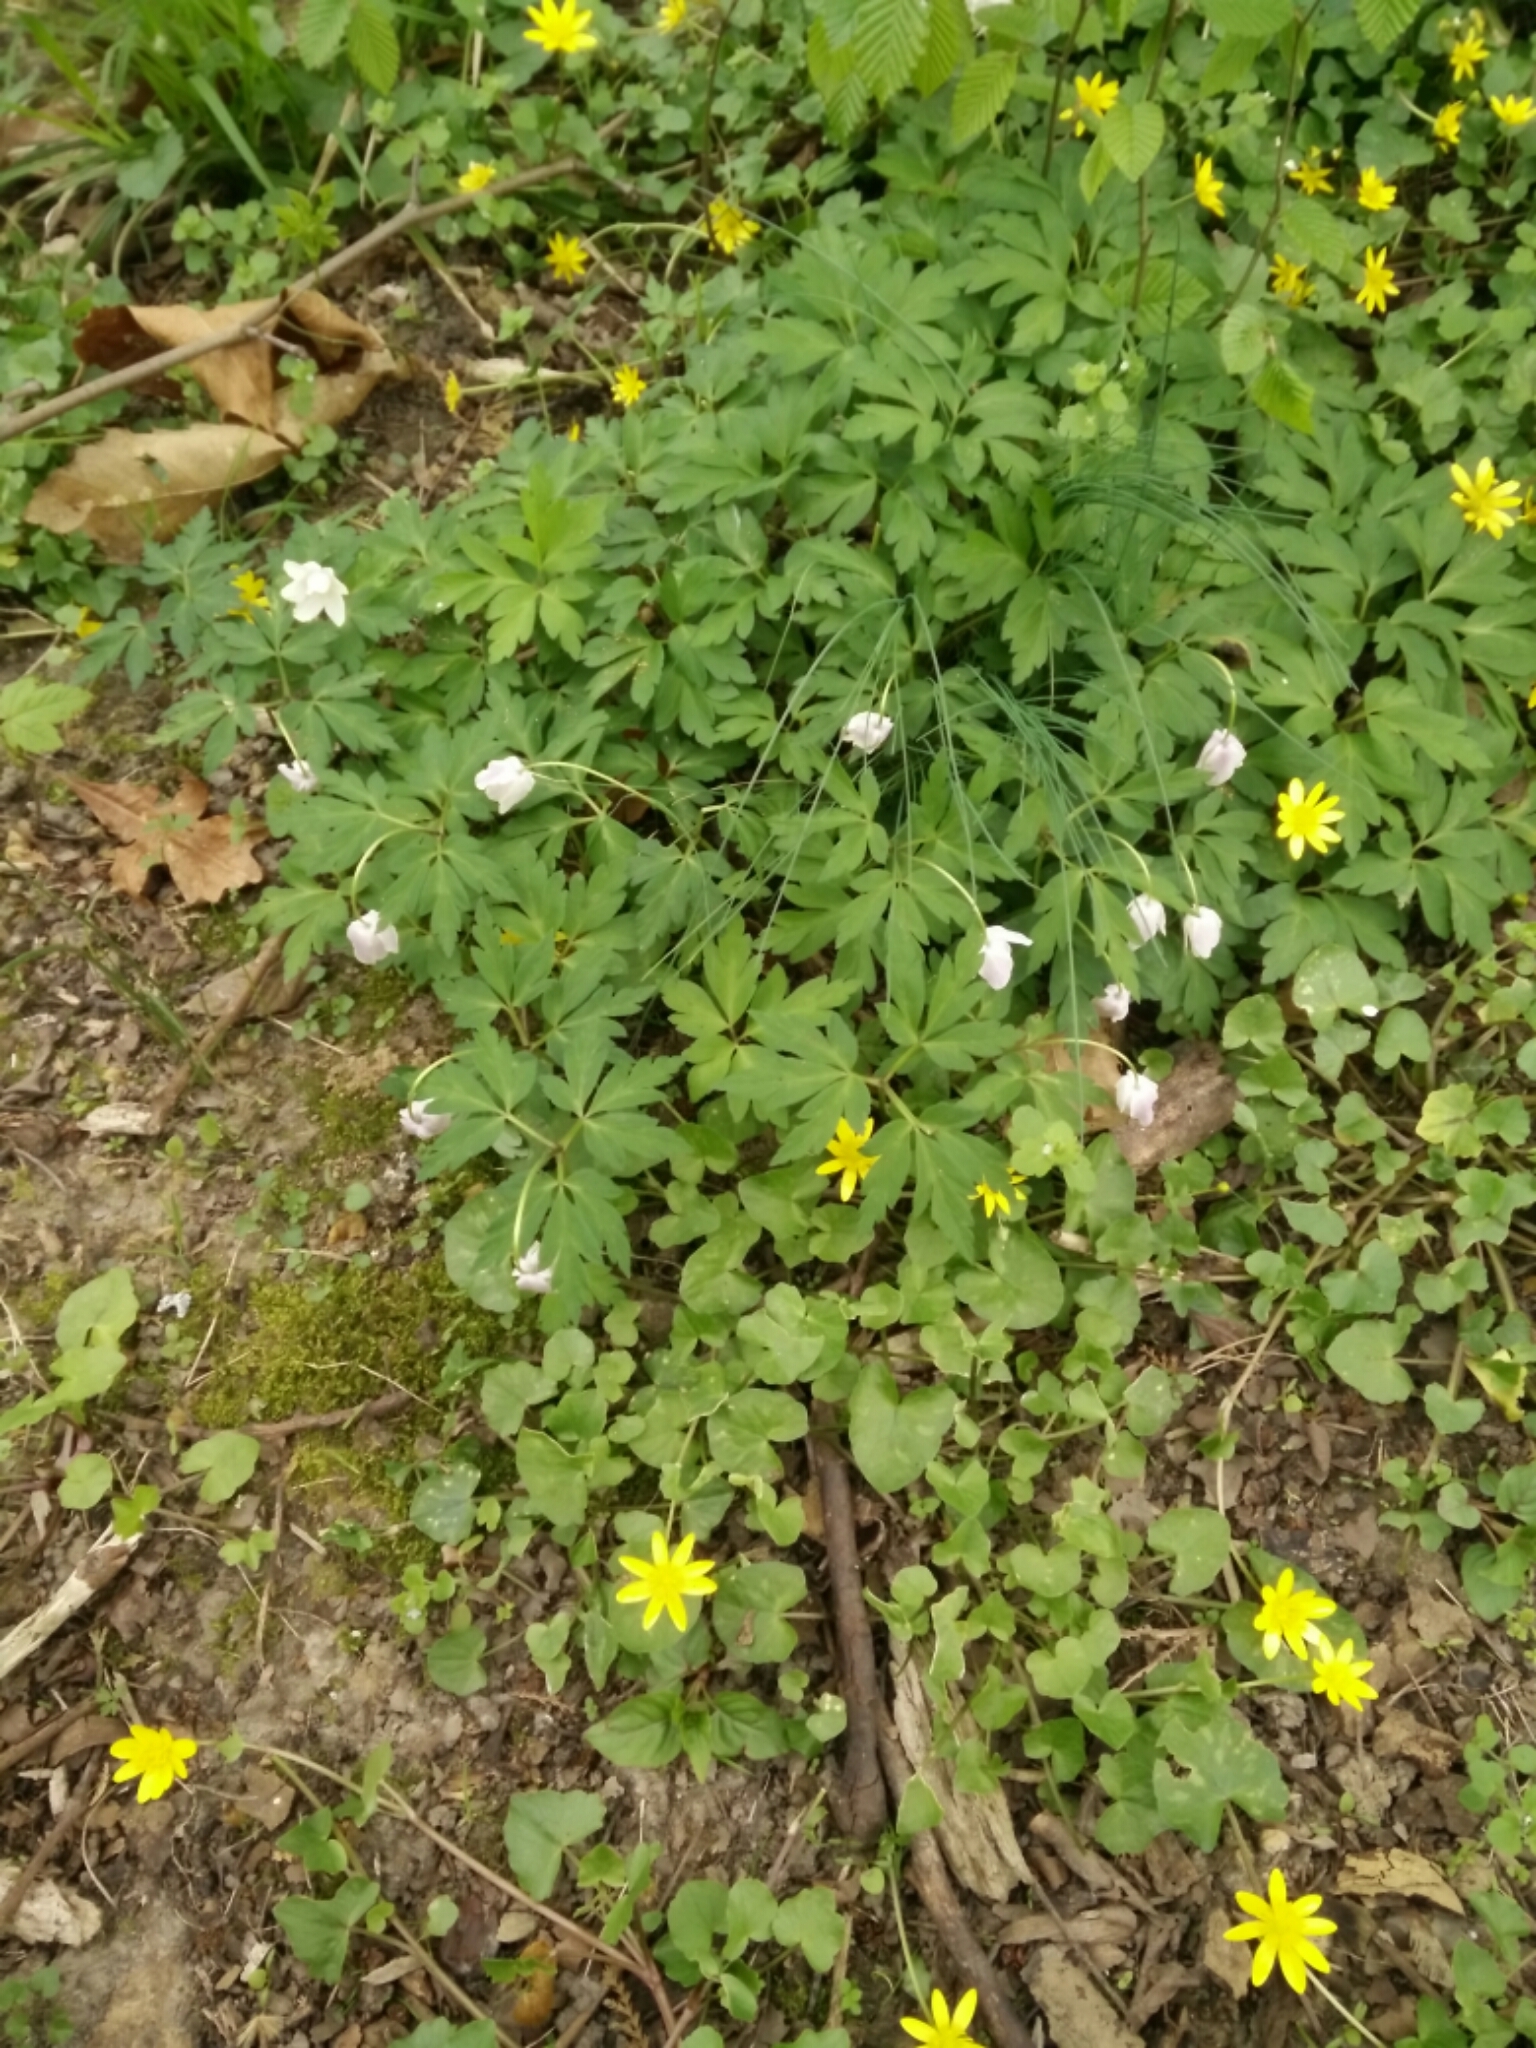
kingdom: Plantae
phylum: Tracheophyta
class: Magnoliopsida
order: Ranunculales
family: Ranunculaceae
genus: Anemone
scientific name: Anemone nemorosa
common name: Wood anemone
